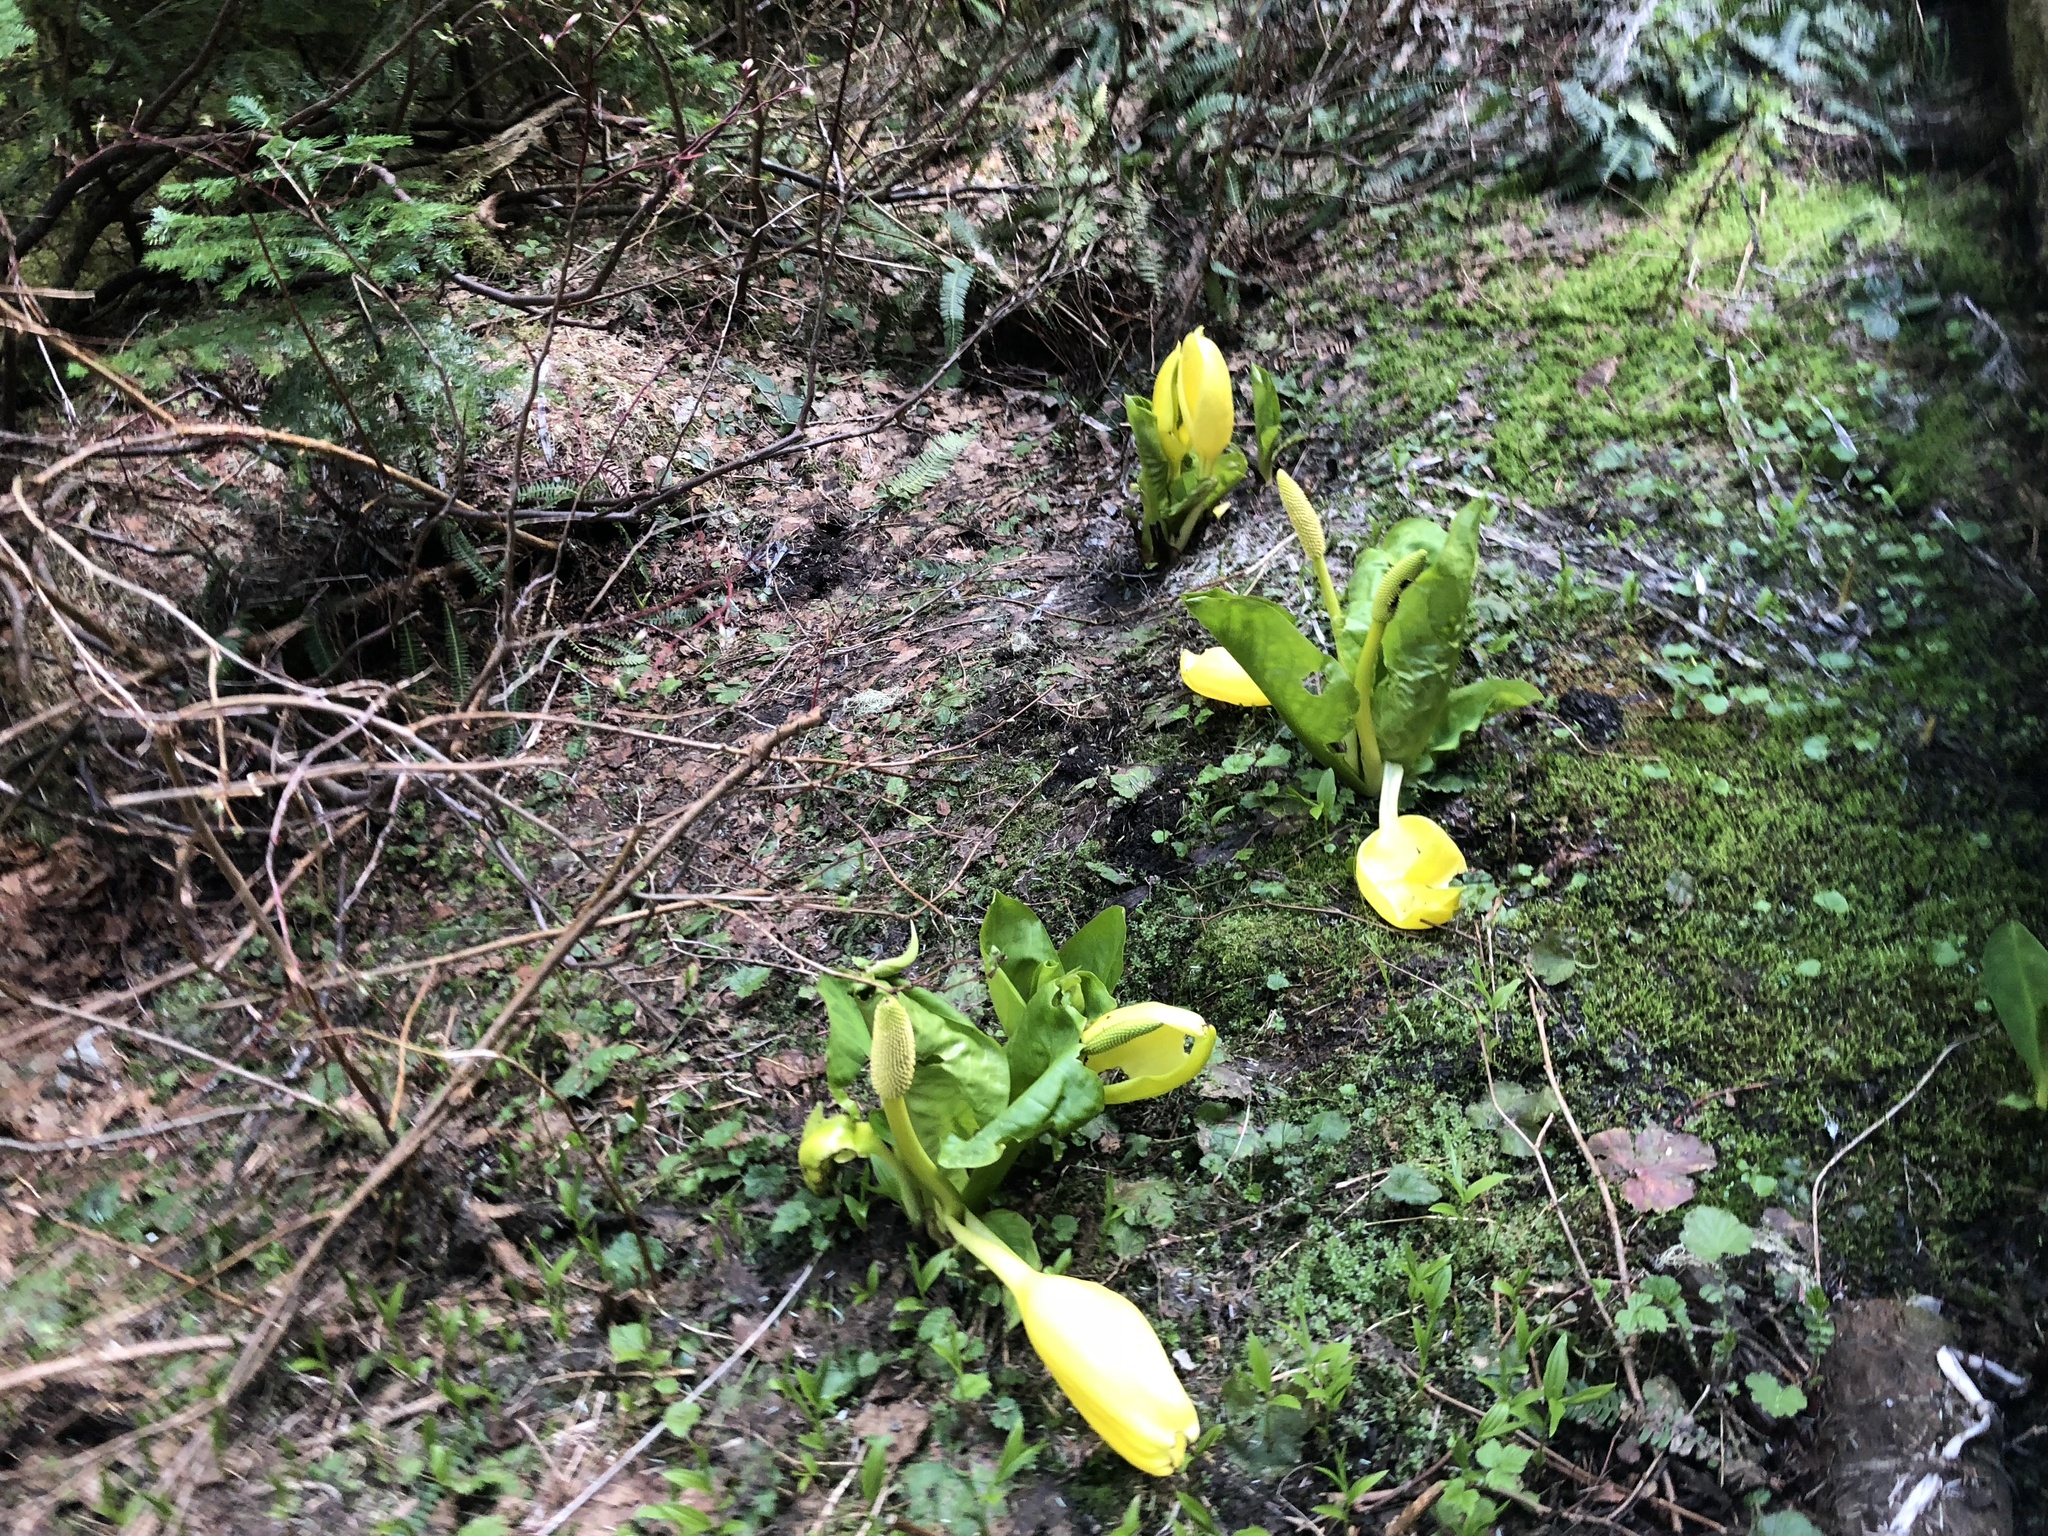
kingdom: Plantae
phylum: Tracheophyta
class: Liliopsida
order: Alismatales
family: Araceae
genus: Lysichiton
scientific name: Lysichiton americanus
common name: American skunk cabbage
